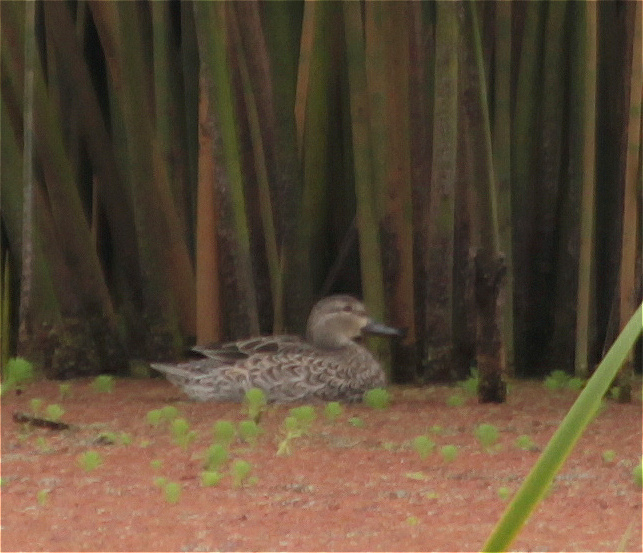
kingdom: Animalia
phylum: Chordata
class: Aves
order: Anseriformes
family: Anatidae
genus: Spatula
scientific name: Spatula discors
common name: Blue-winged teal
